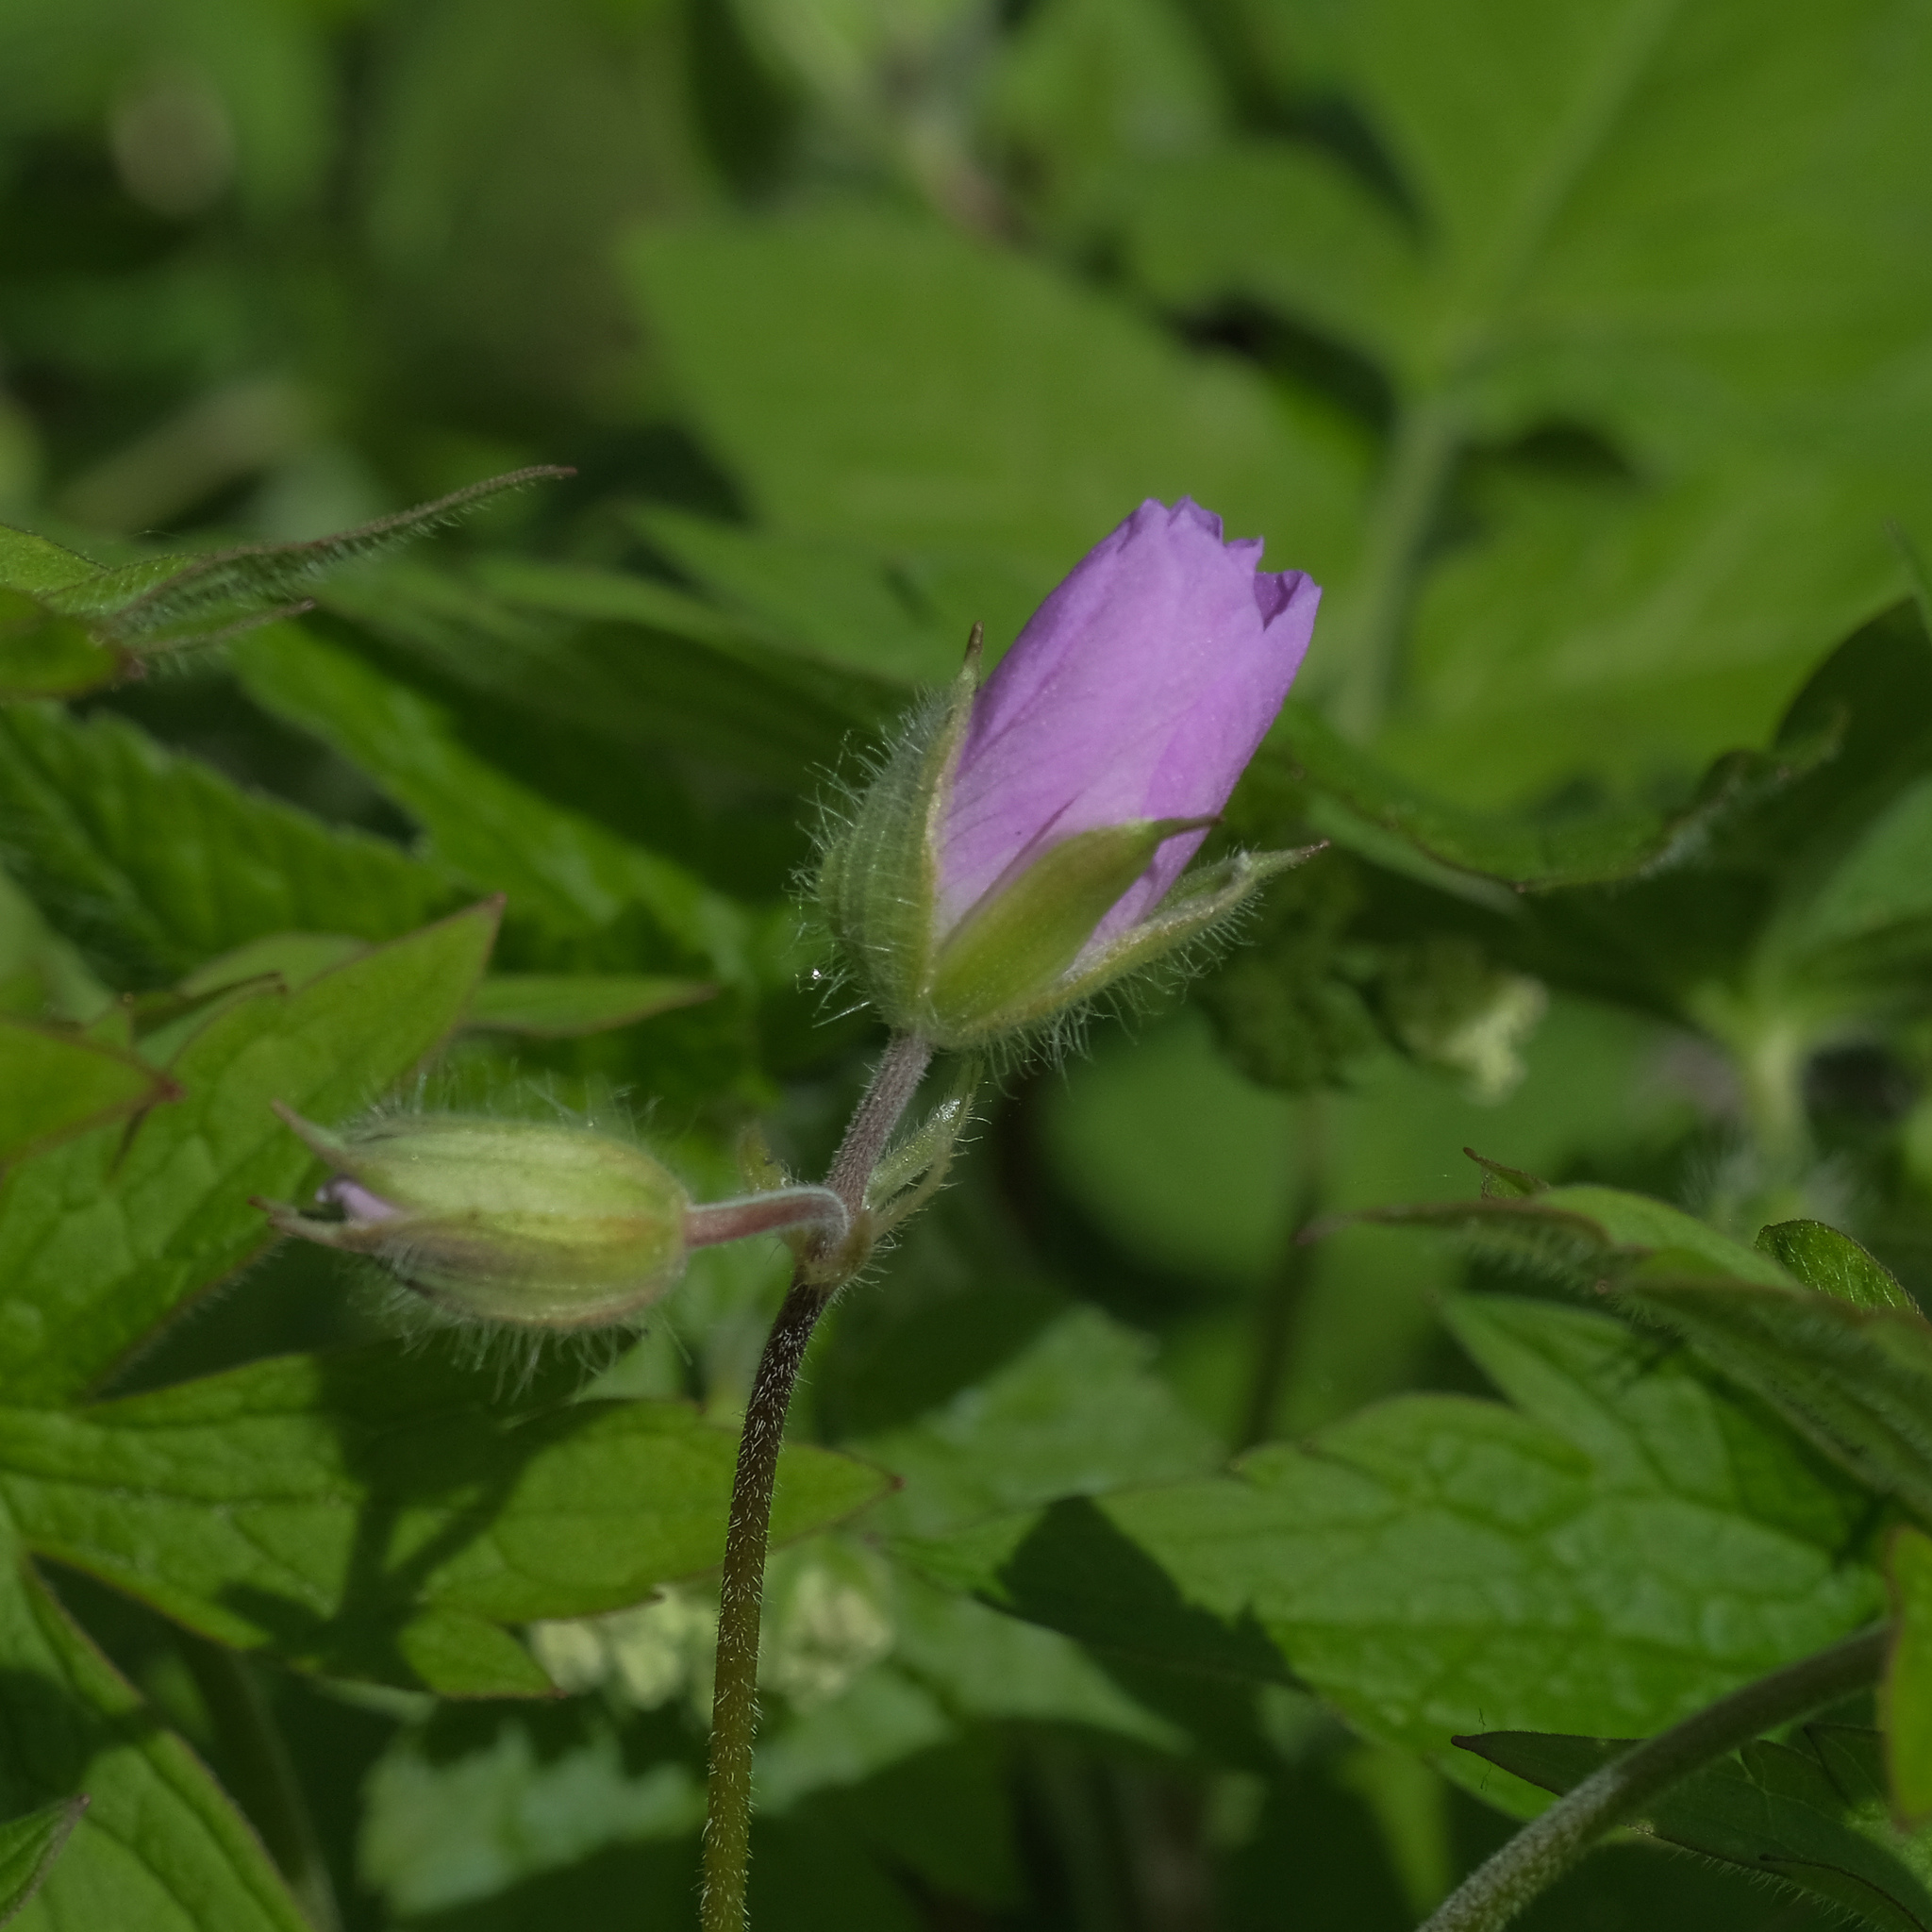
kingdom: Plantae
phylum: Tracheophyta
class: Magnoliopsida
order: Geraniales
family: Geraniaceae
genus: Geranium
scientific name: Geranium maculatum
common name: Spotted geranium
